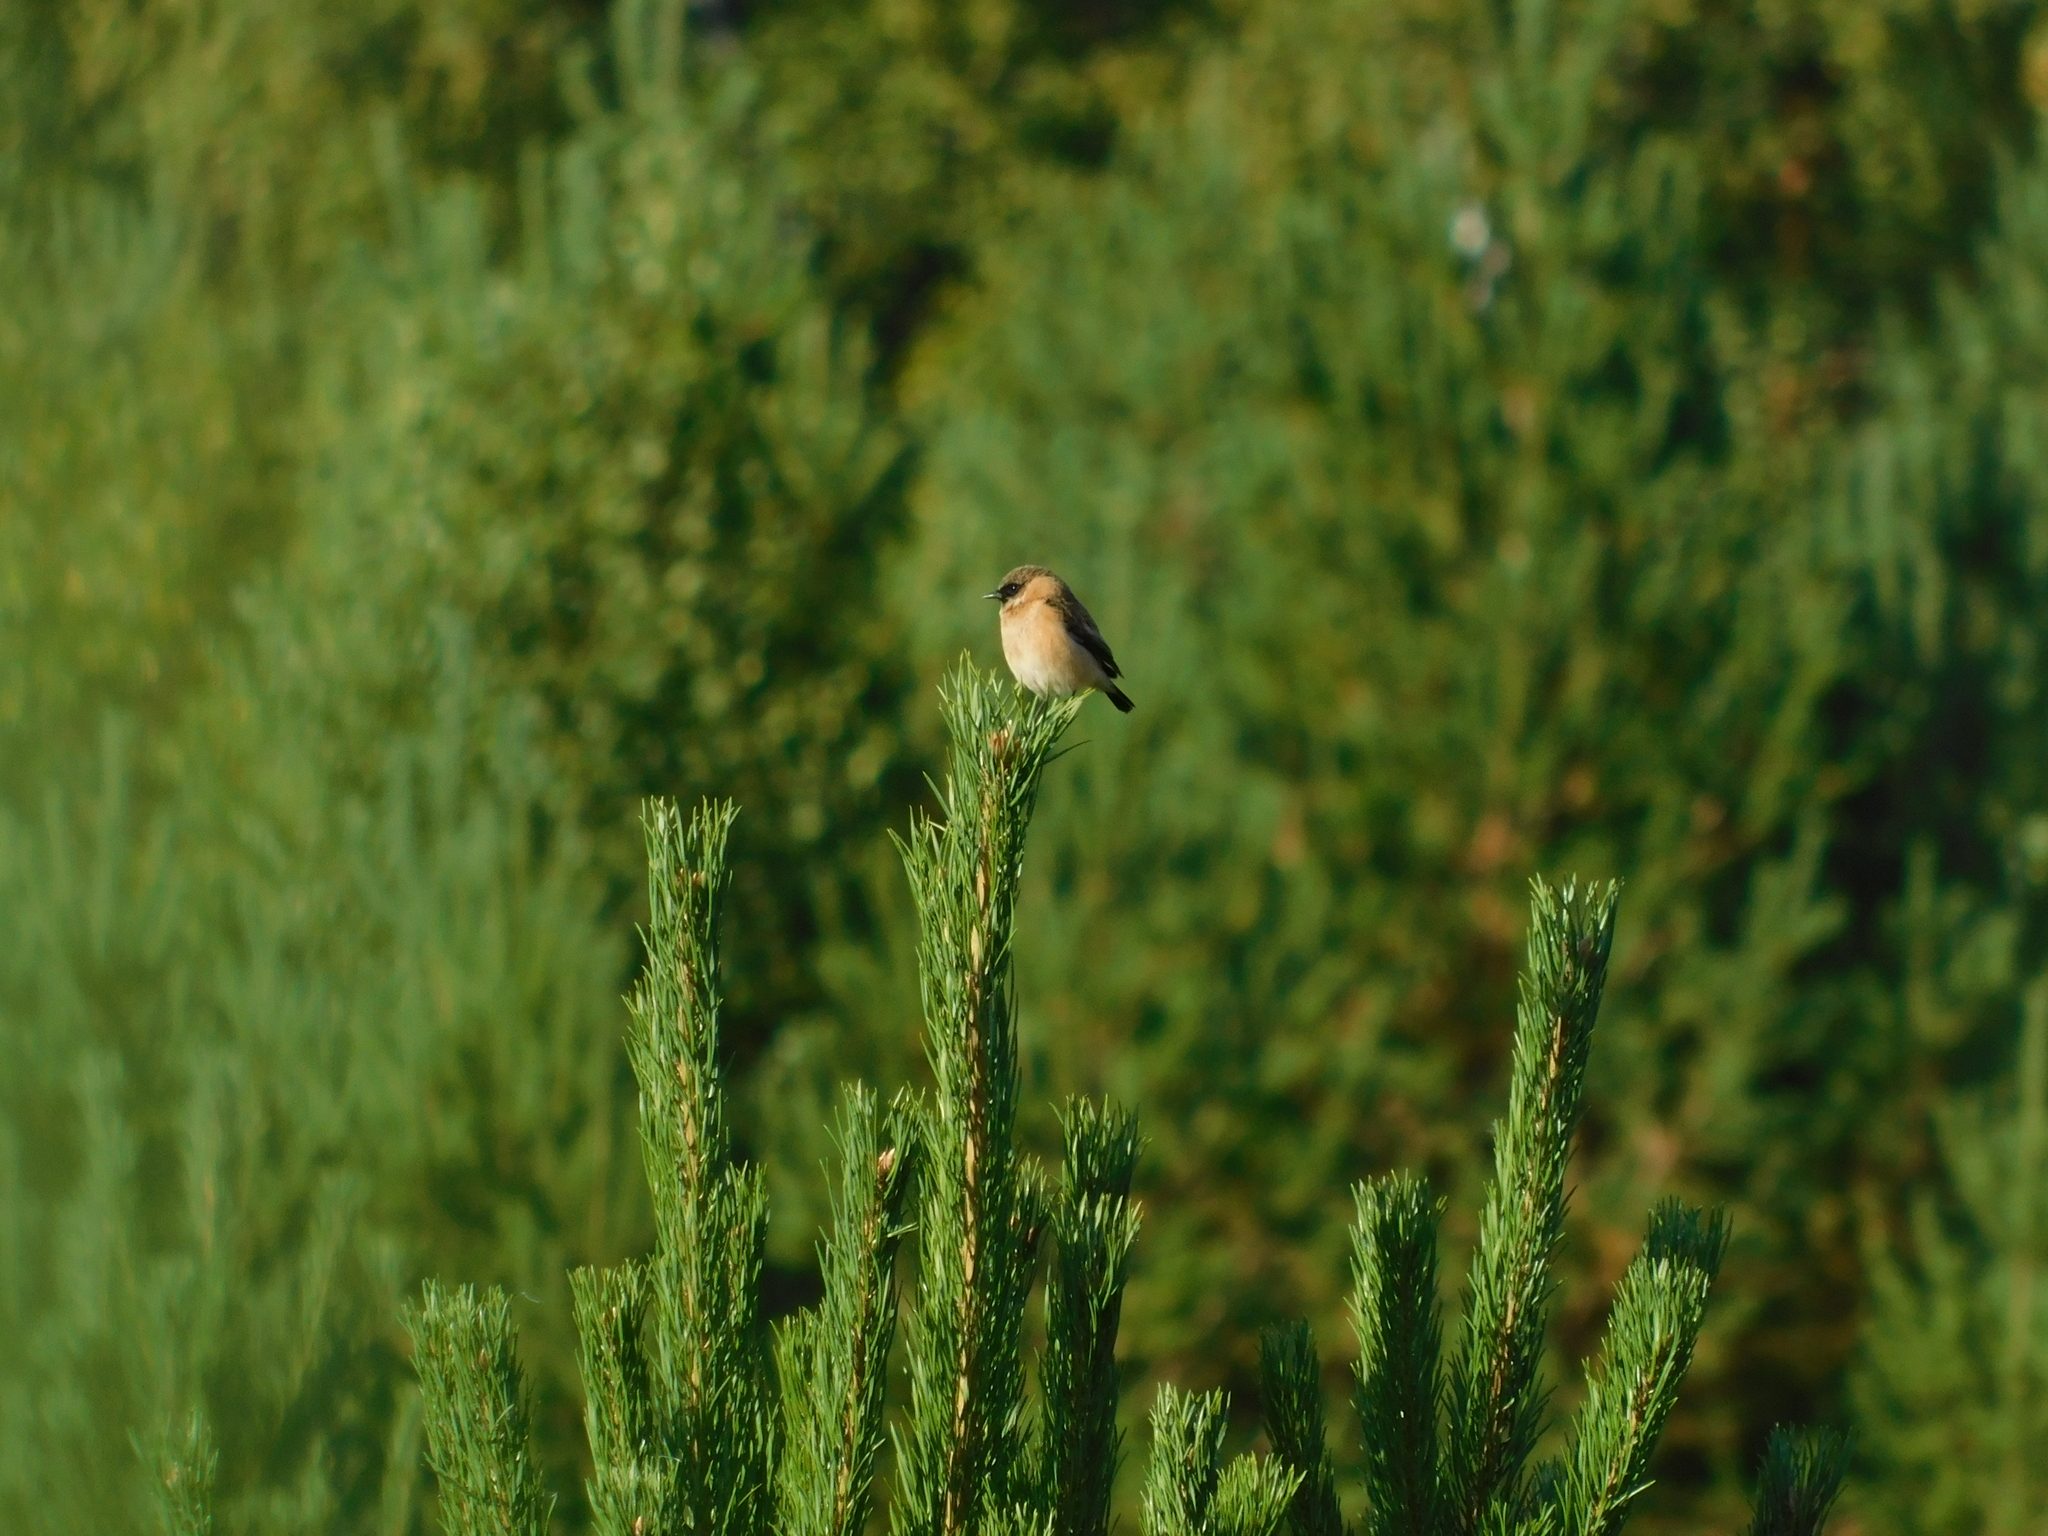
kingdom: Animalia
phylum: Chordata
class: Aves
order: Passeriformes
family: Muscicapidae
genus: Saxicola
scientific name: Saxicola maurus
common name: Siberian stonechat
